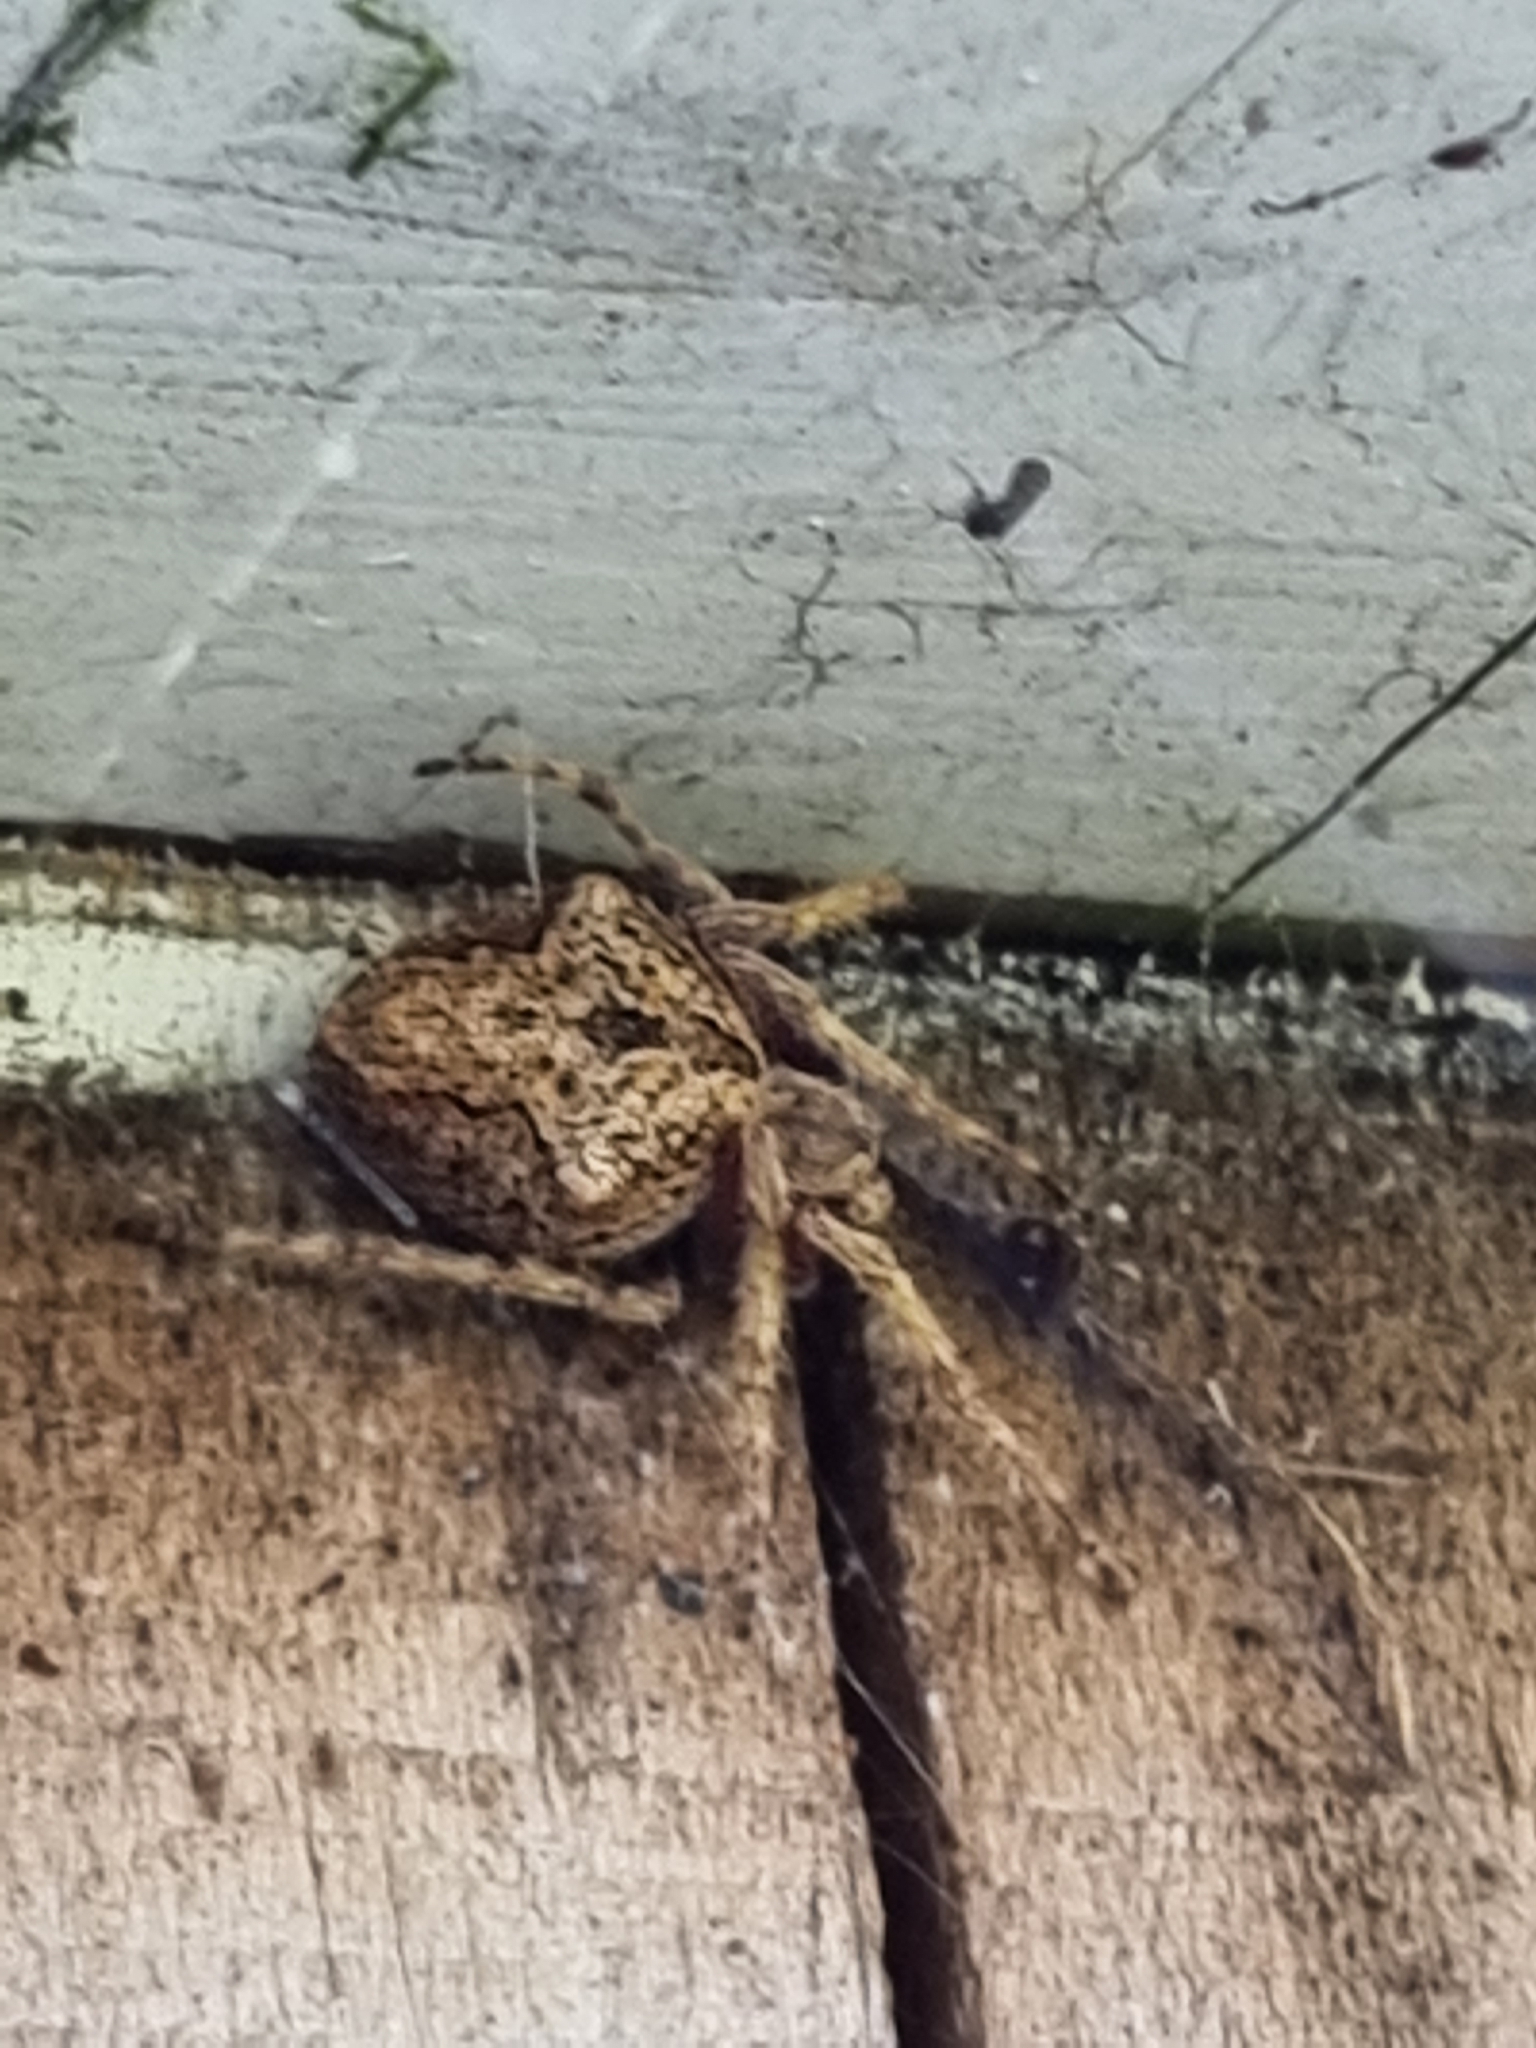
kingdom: Animalia
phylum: Arthropoda
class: Arachnida
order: Araneae
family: Araneidae
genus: Eriophora
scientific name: Eriophora pustulosa
